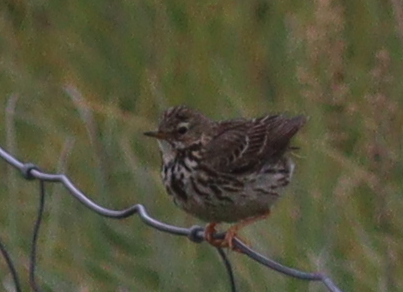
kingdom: Animalia
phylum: Chordata
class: Aves
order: Passeriformes
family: Motacillidae
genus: Anthus
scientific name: Anthus pratensis
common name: Meadow pipit
